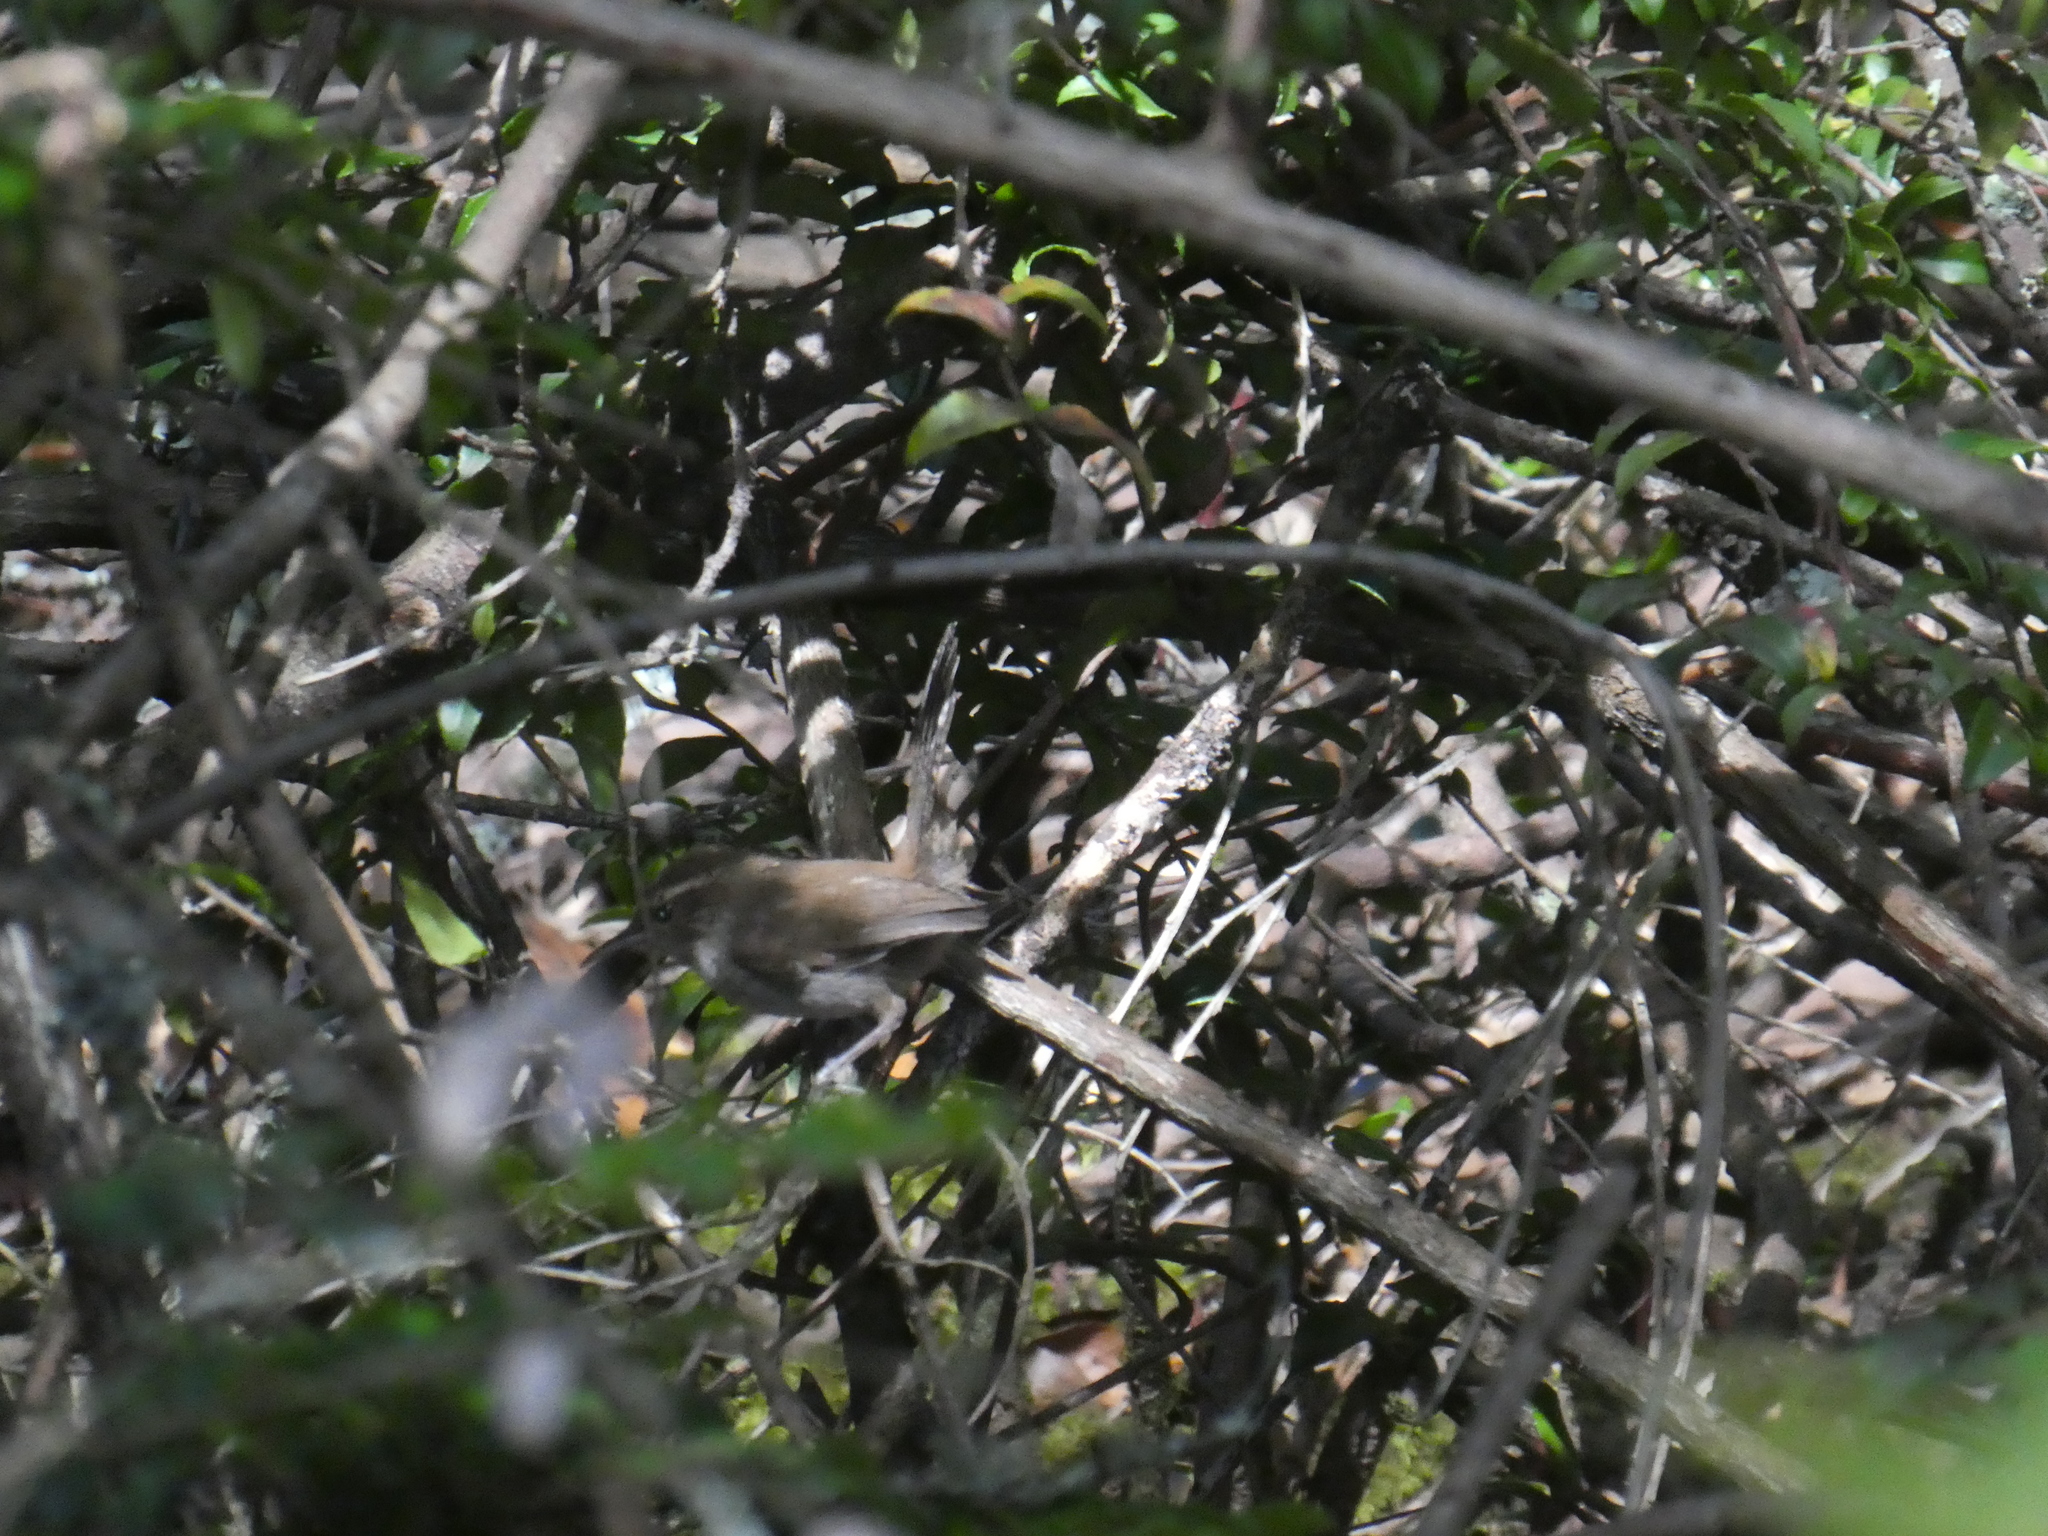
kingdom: Animalia
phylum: Chordata
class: Aves
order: Passeriformes
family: Troglodytidae
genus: Thryomanes
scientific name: Thryomanes bewickii
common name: Bewick's wren
